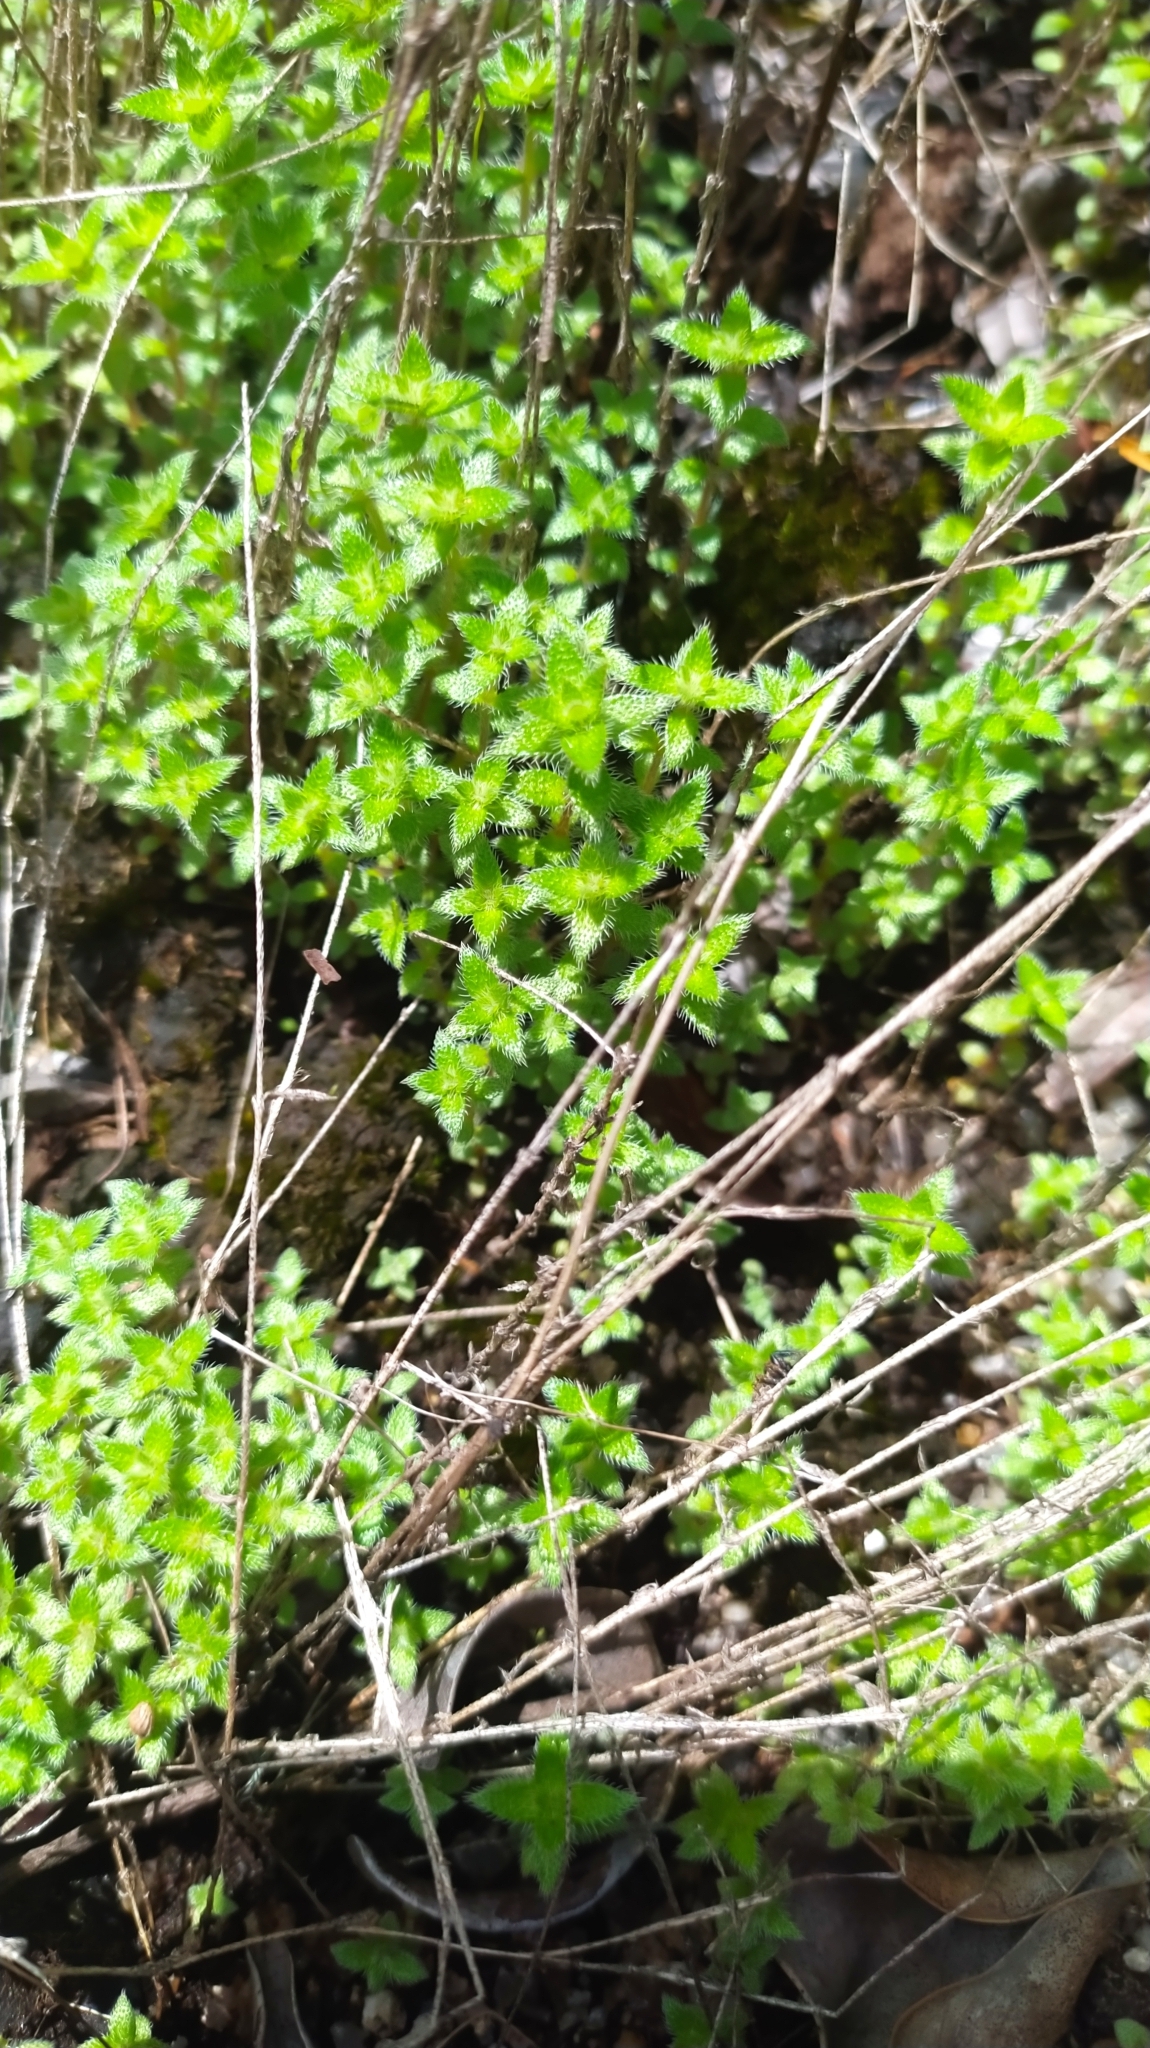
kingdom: Plantae
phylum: Tracheophyta
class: Magnoliopsida
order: Gentianales
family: Rubiaceae
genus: Perama
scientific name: Perama hirsuta
